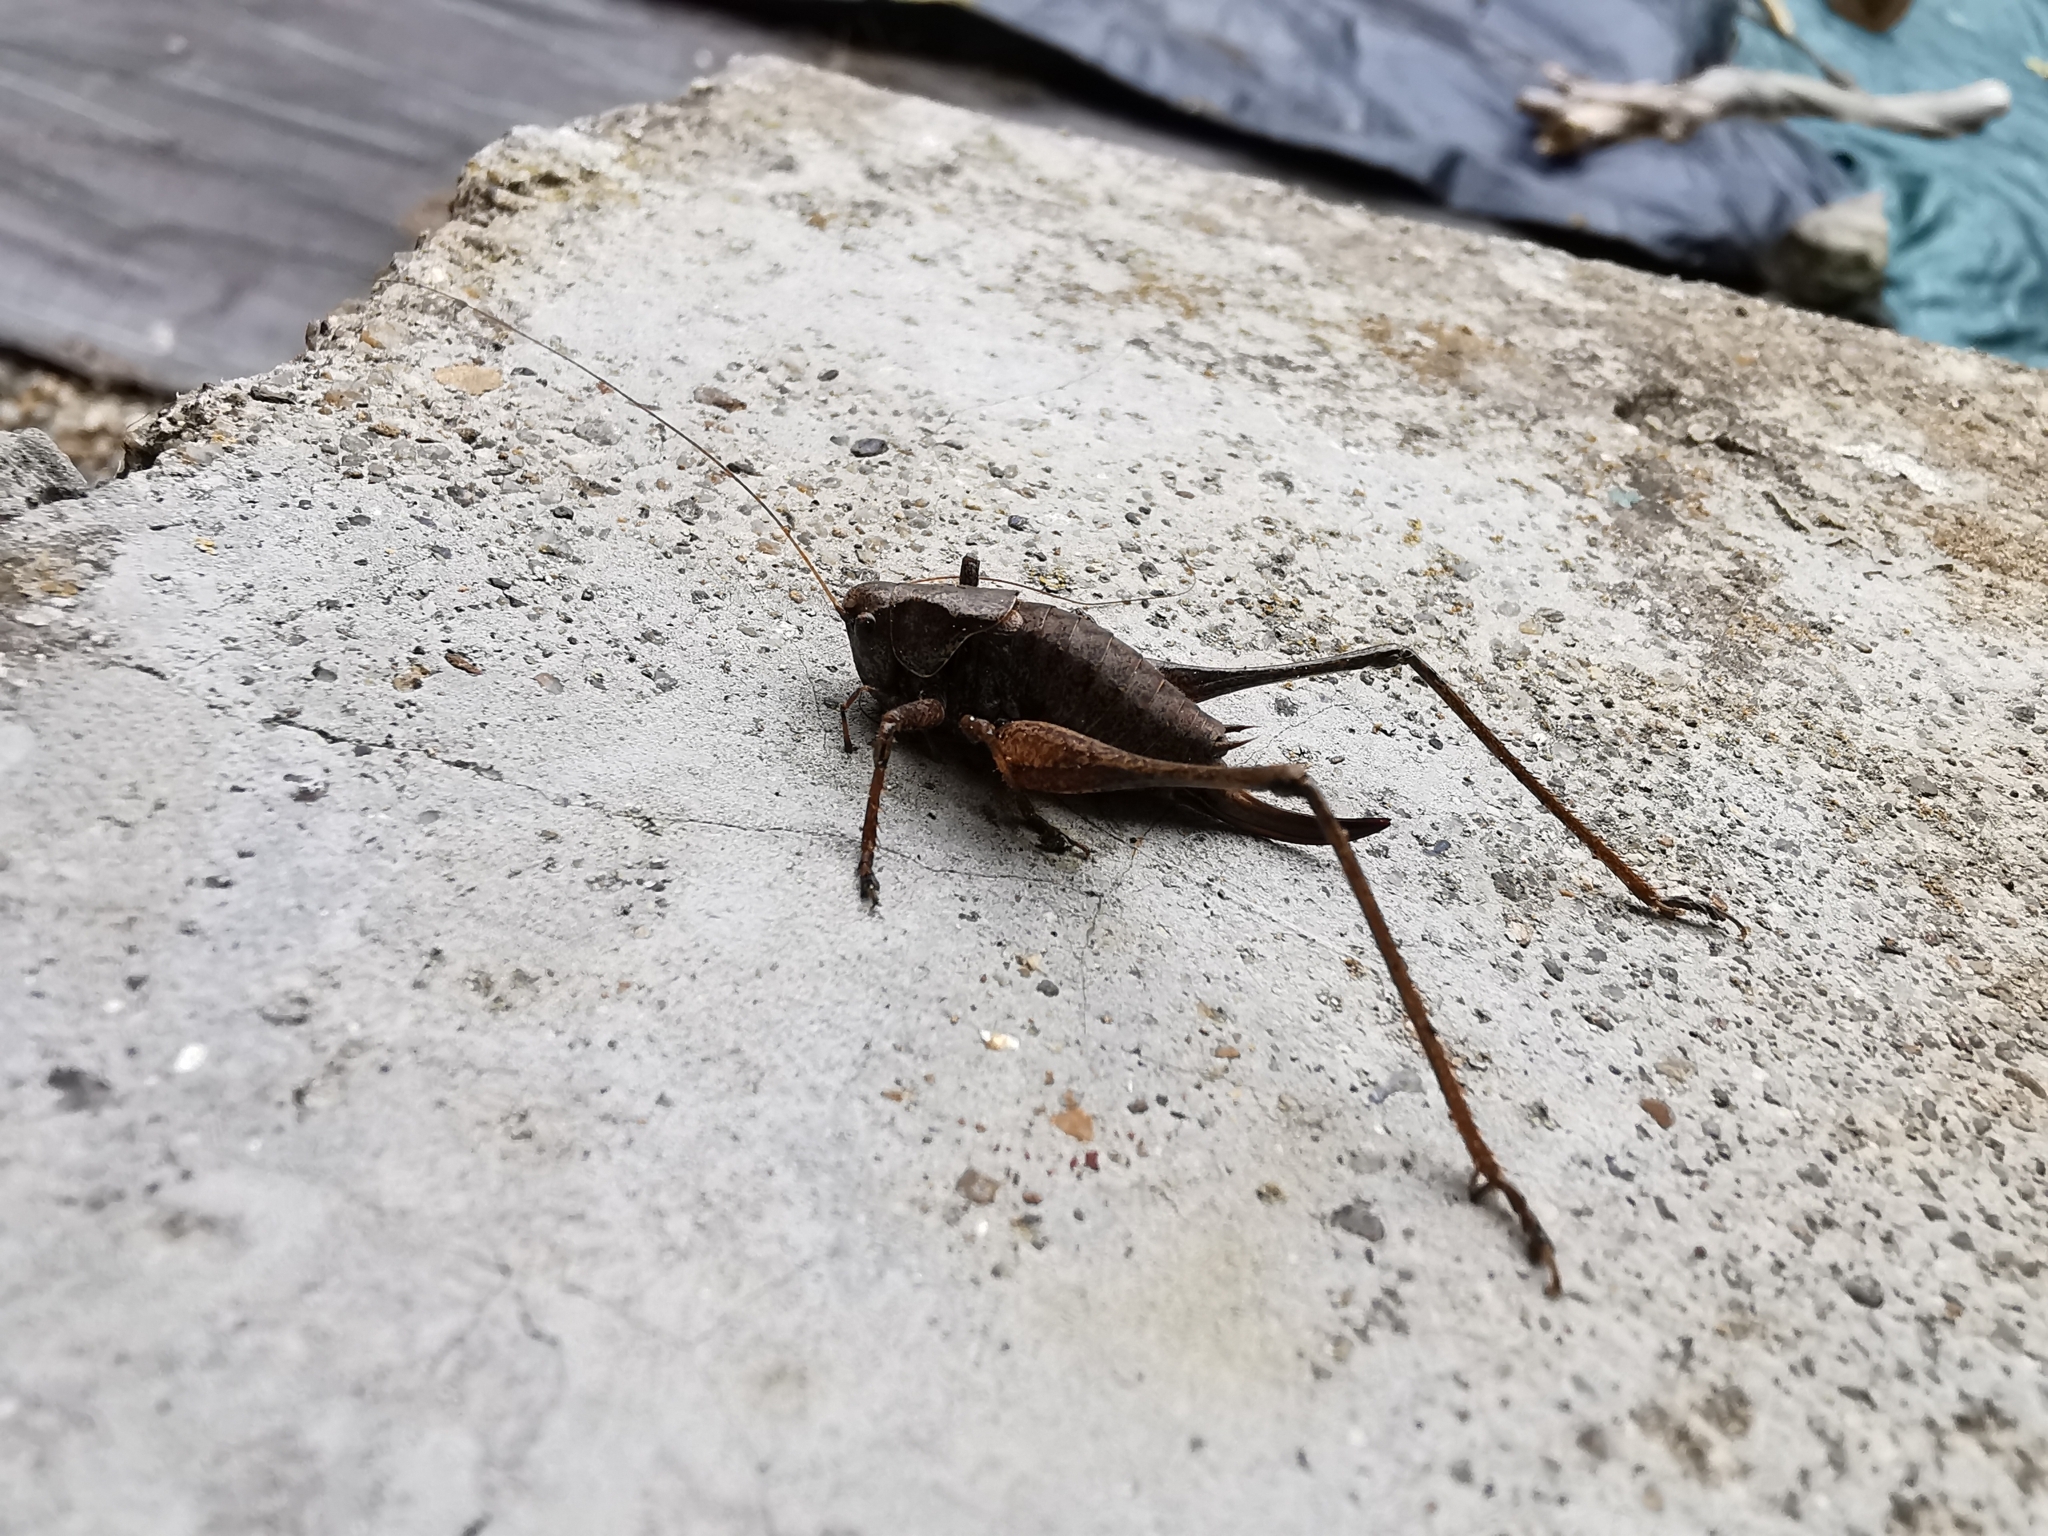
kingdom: Animalia
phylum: Arthropoda
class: Insecta
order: Orthoptera
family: Tettigoniidae
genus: Pholidoptera
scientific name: Pholidoptera griseoaptera
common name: Dark bush-cricket
